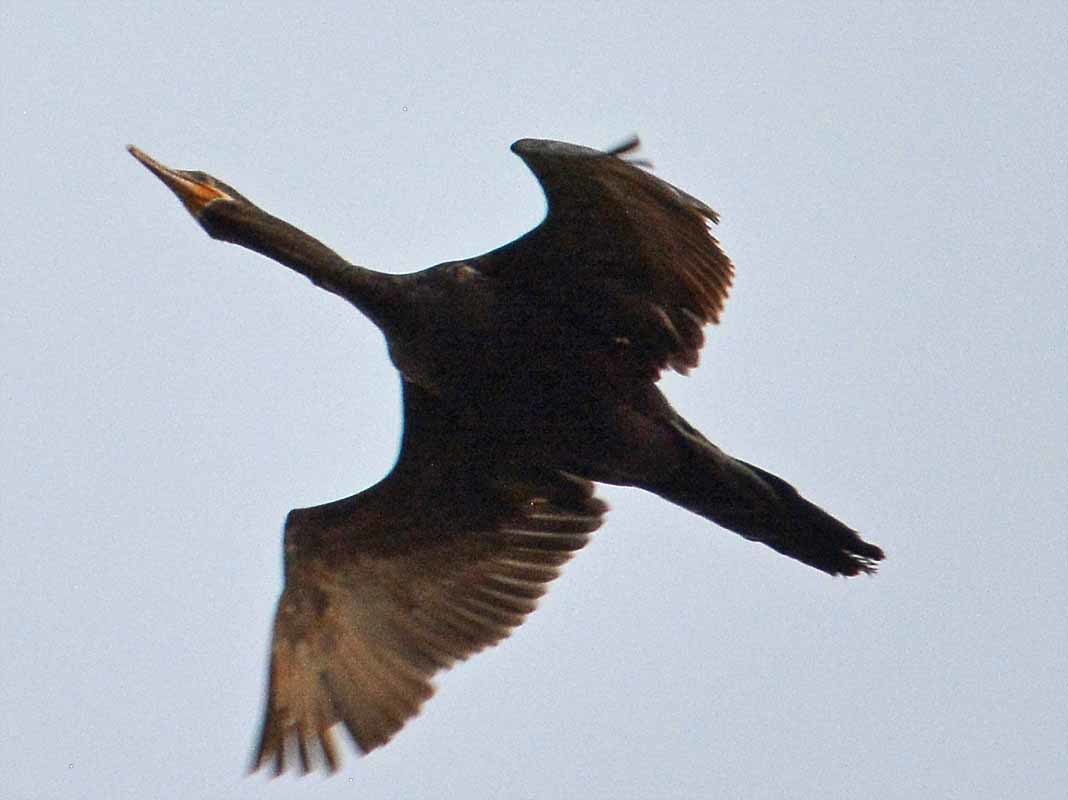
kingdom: Animalia
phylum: Chordata
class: Aves
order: Suliformes
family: Phalacrocoracidae
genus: Phalacrocorax
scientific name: Phalacrocorax brasilianus
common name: Neotropic cormorant
